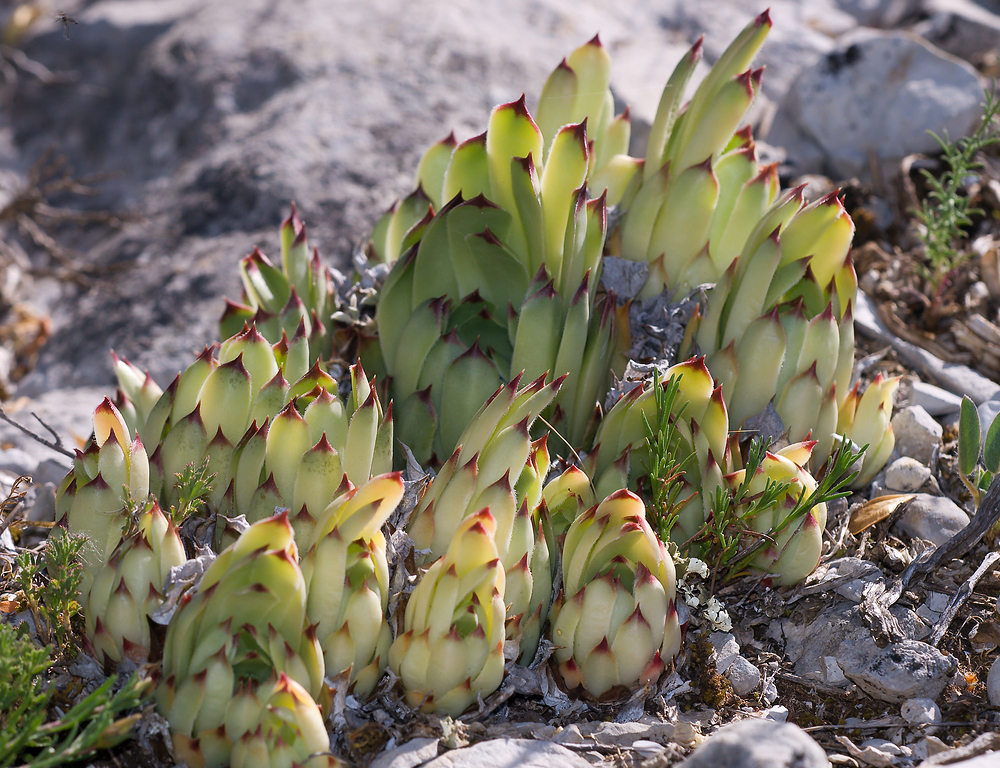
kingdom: Plantae
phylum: Tracheophyta
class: Magnoliopsida
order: Saxifragales
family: Crassulaceae
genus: Sempervivum
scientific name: Sempervivum tectorum
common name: House-leek
